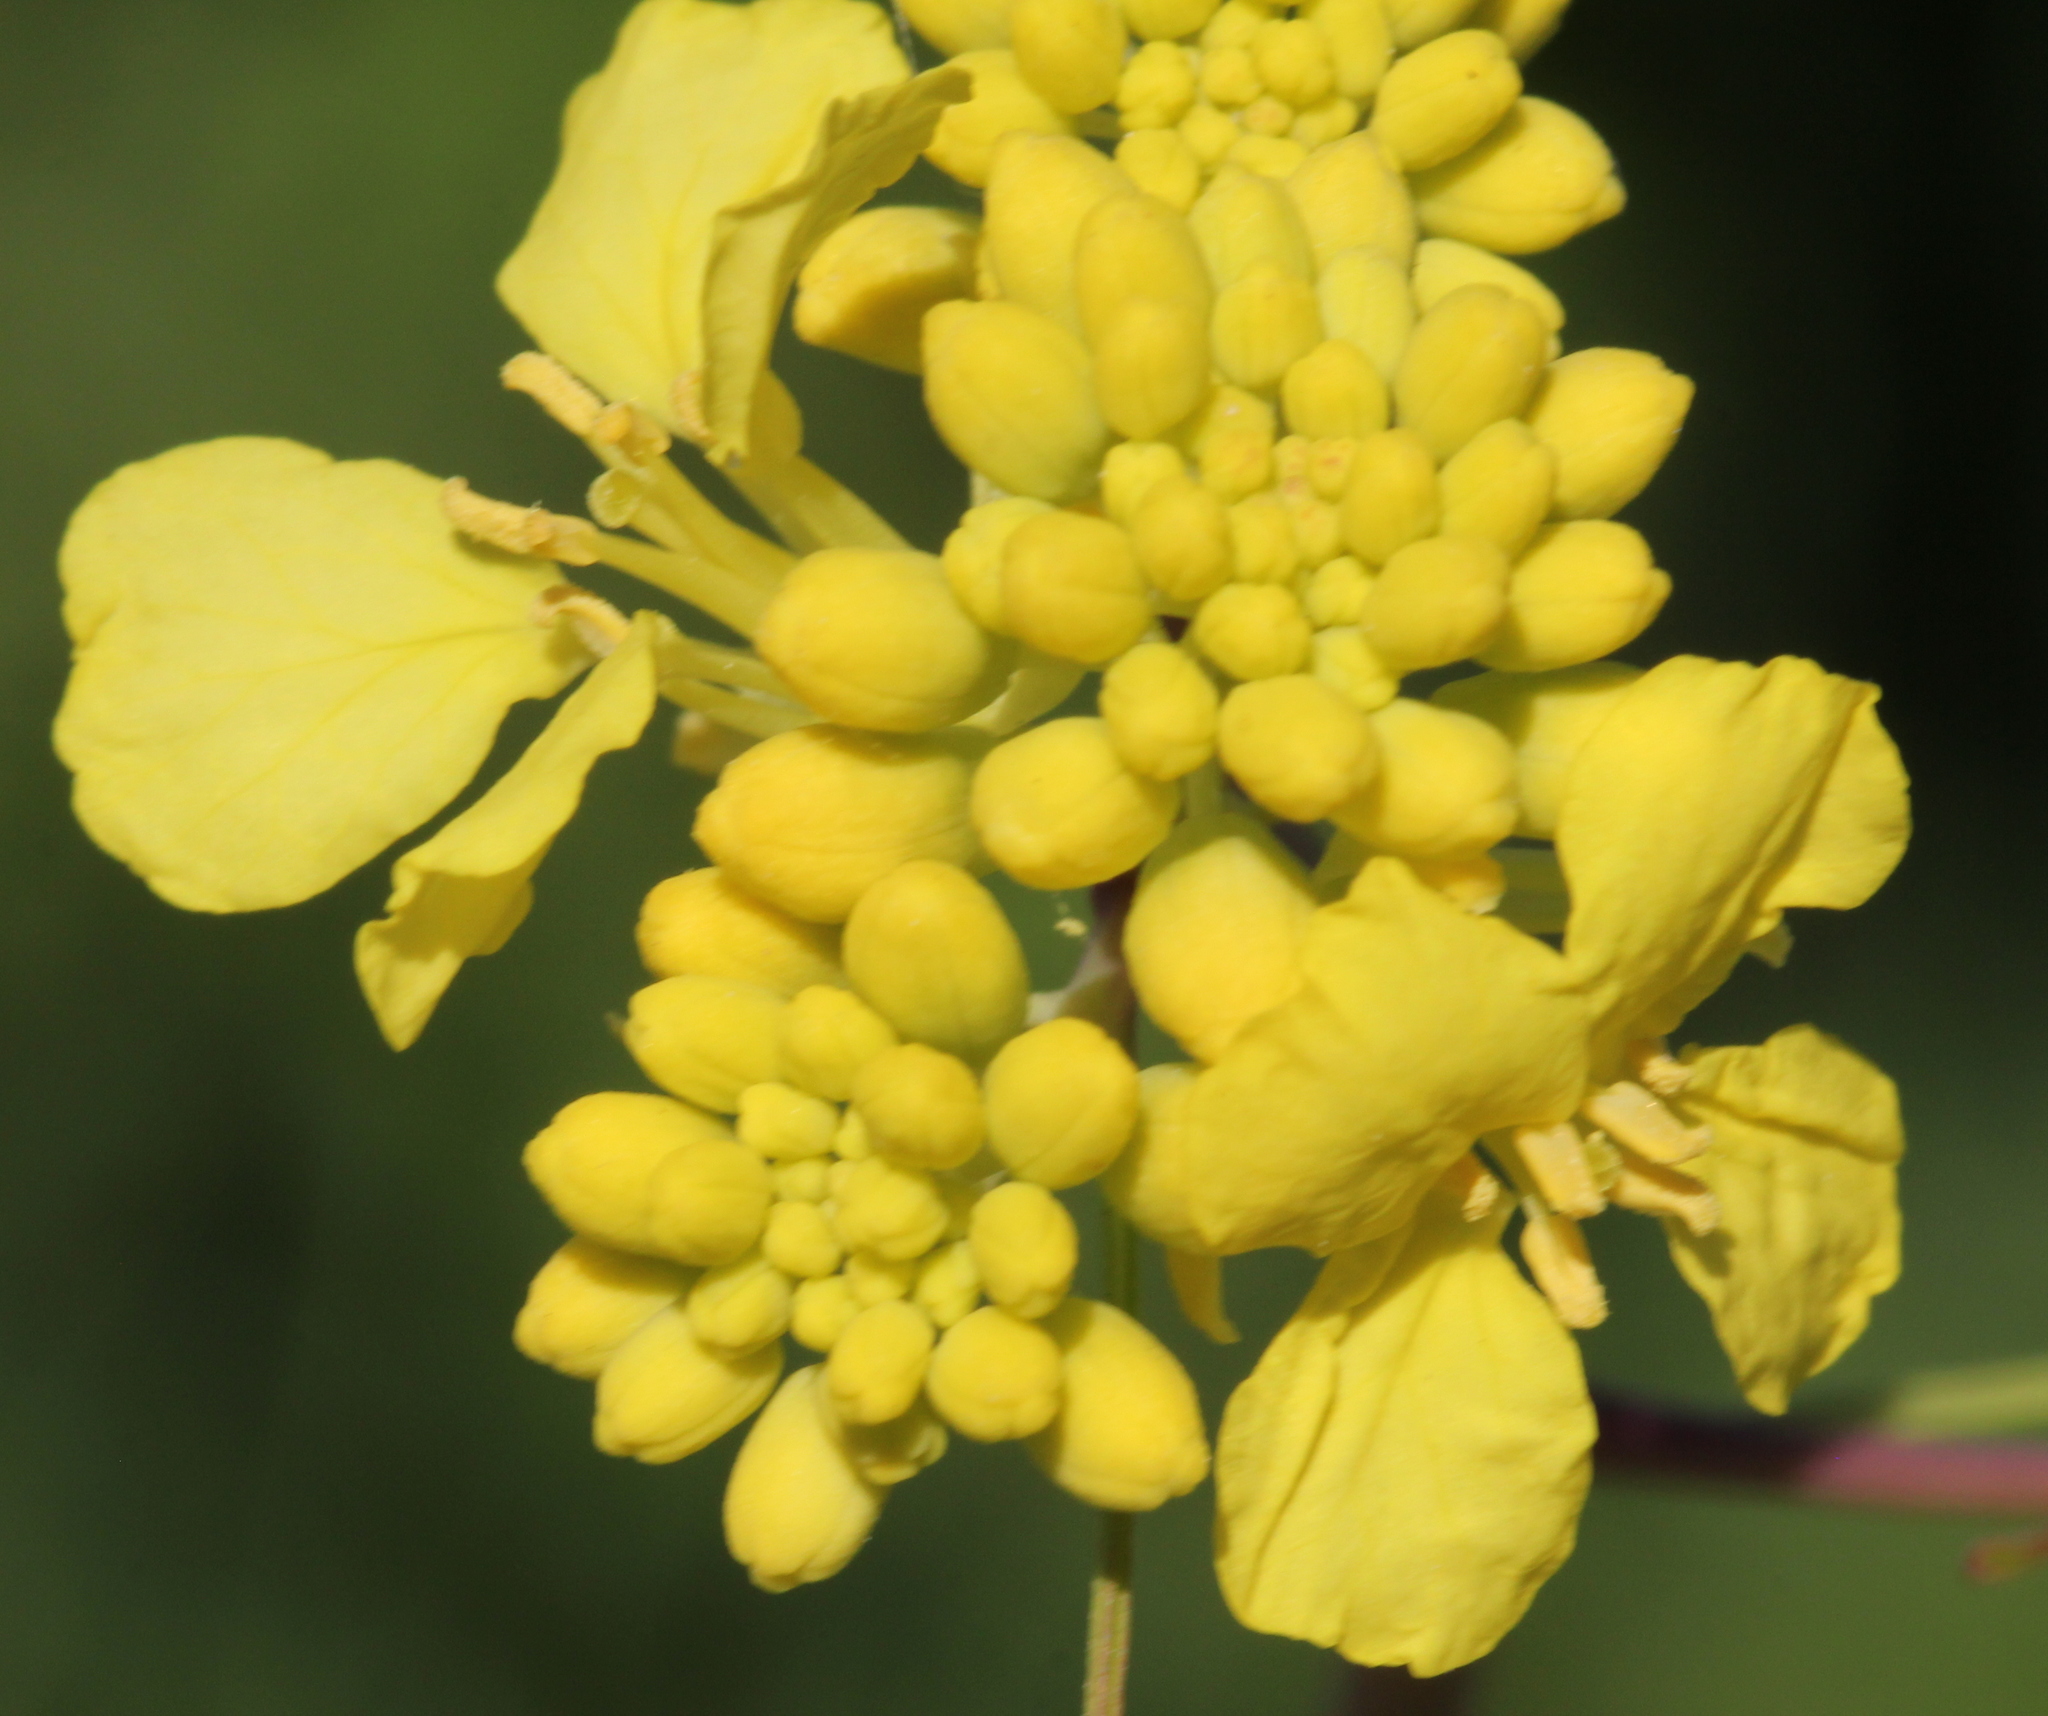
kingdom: Plantae
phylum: Tracheophyta
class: Magnoliopsida
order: Brassicales
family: Brassicaceae
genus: Brassica
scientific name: Brassica nigra
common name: Black mustard
